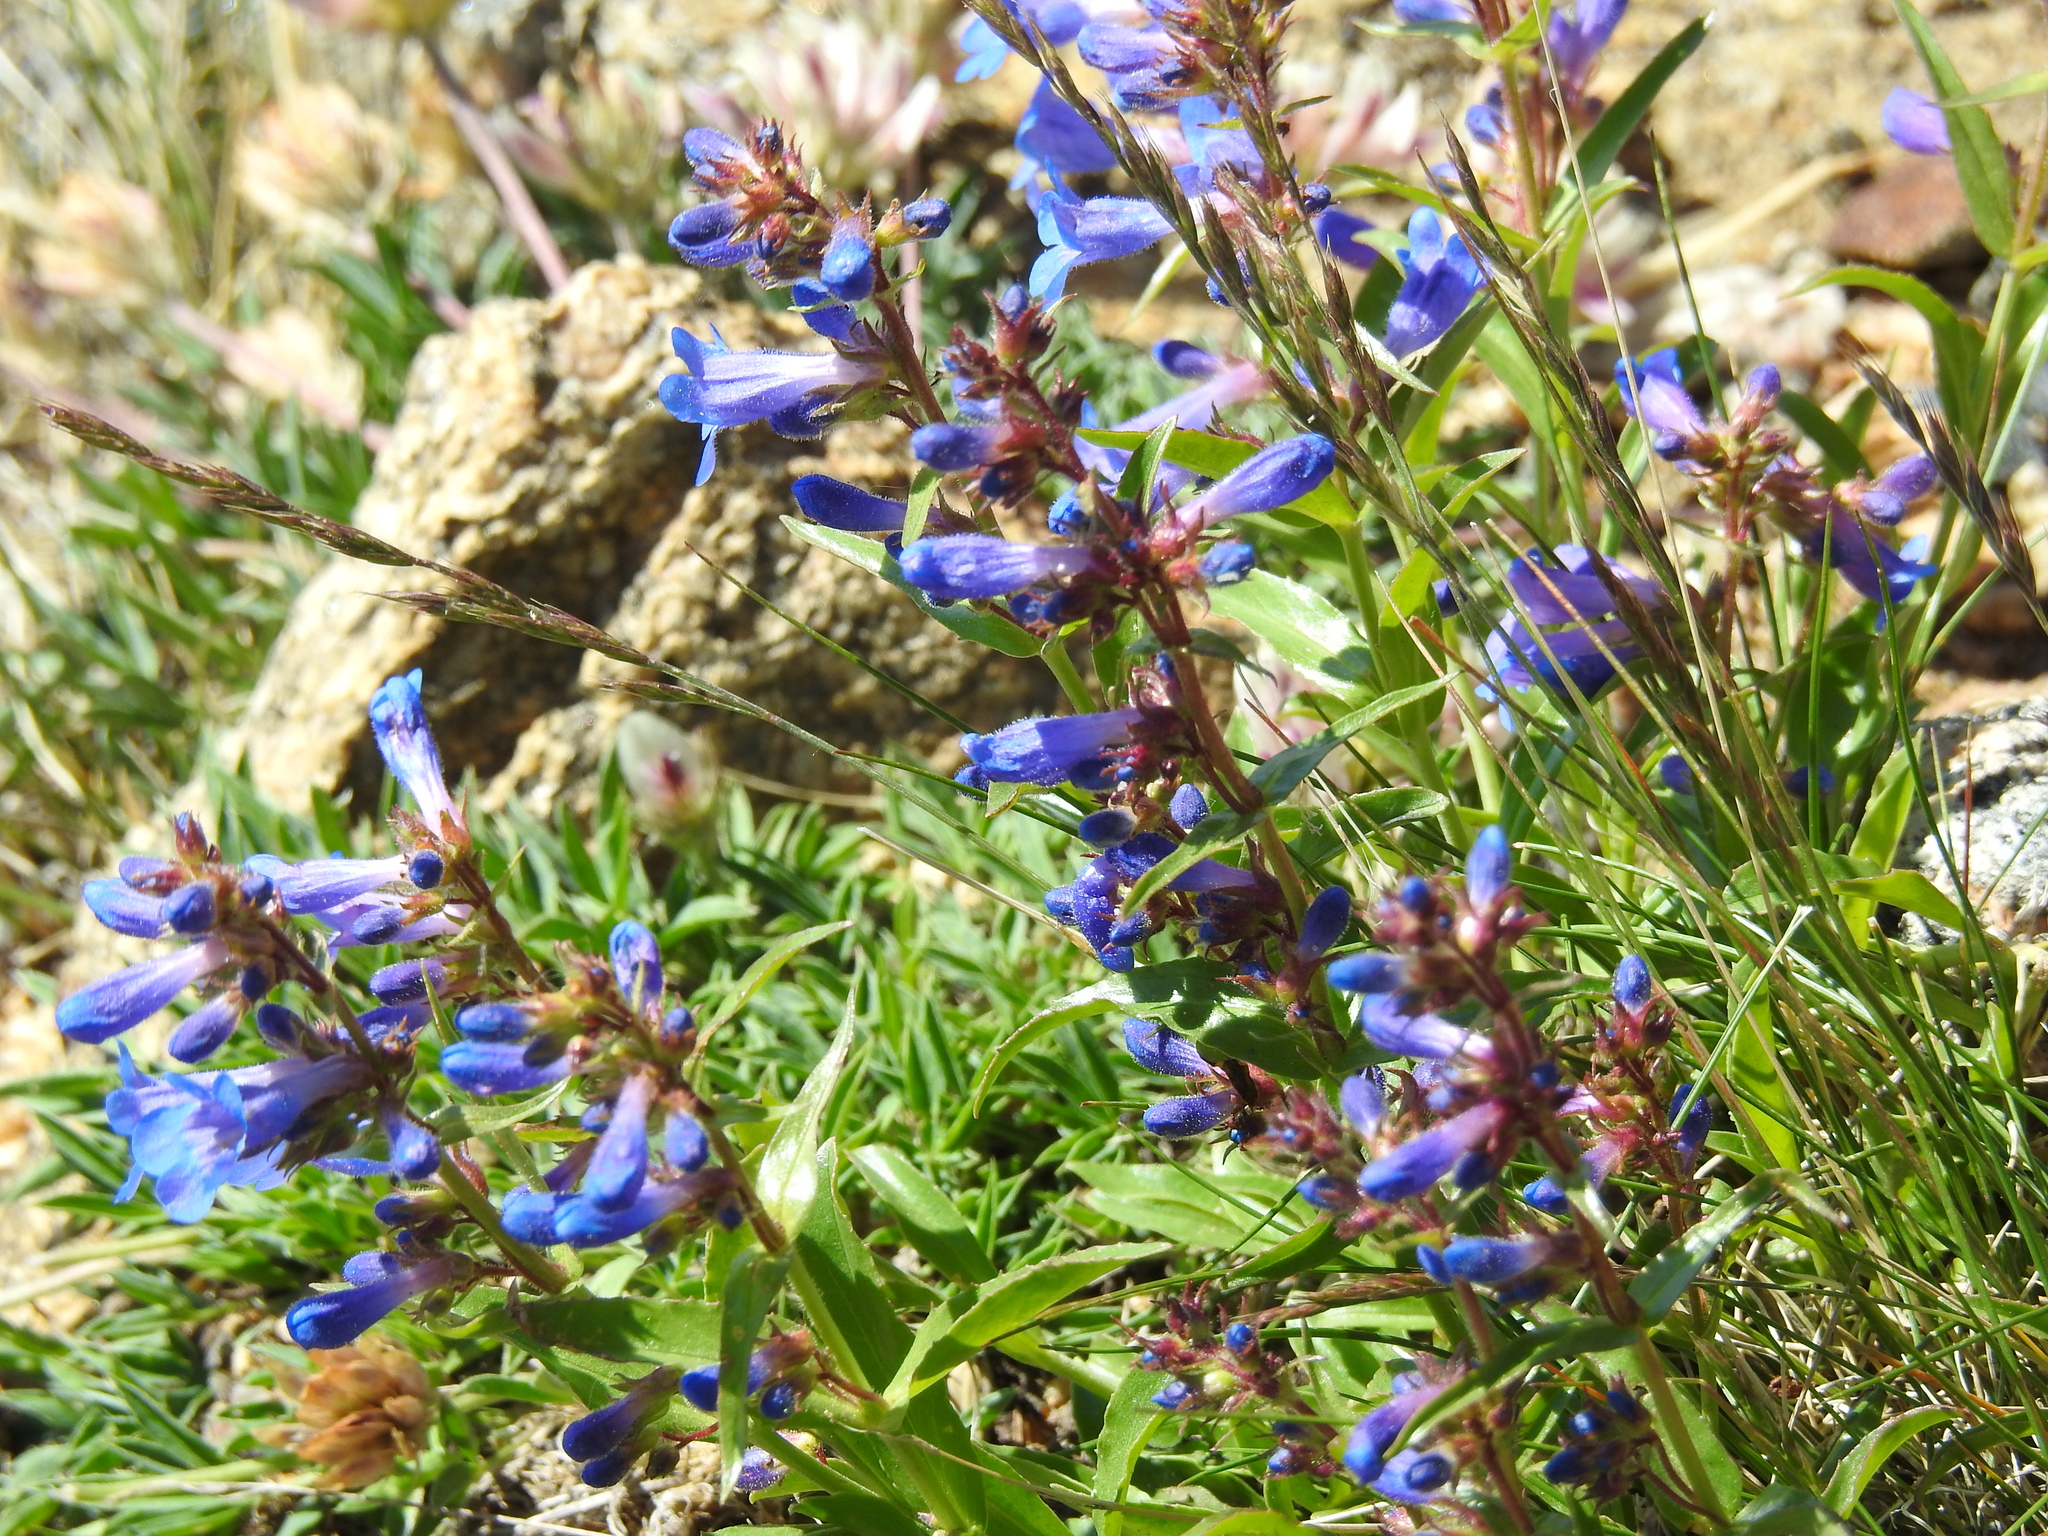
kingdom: Plantae
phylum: Tracheophyta
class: Magnoliopsida
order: Lamiales
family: Plantaginaceae
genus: Penstemon
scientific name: Penstemon virens
